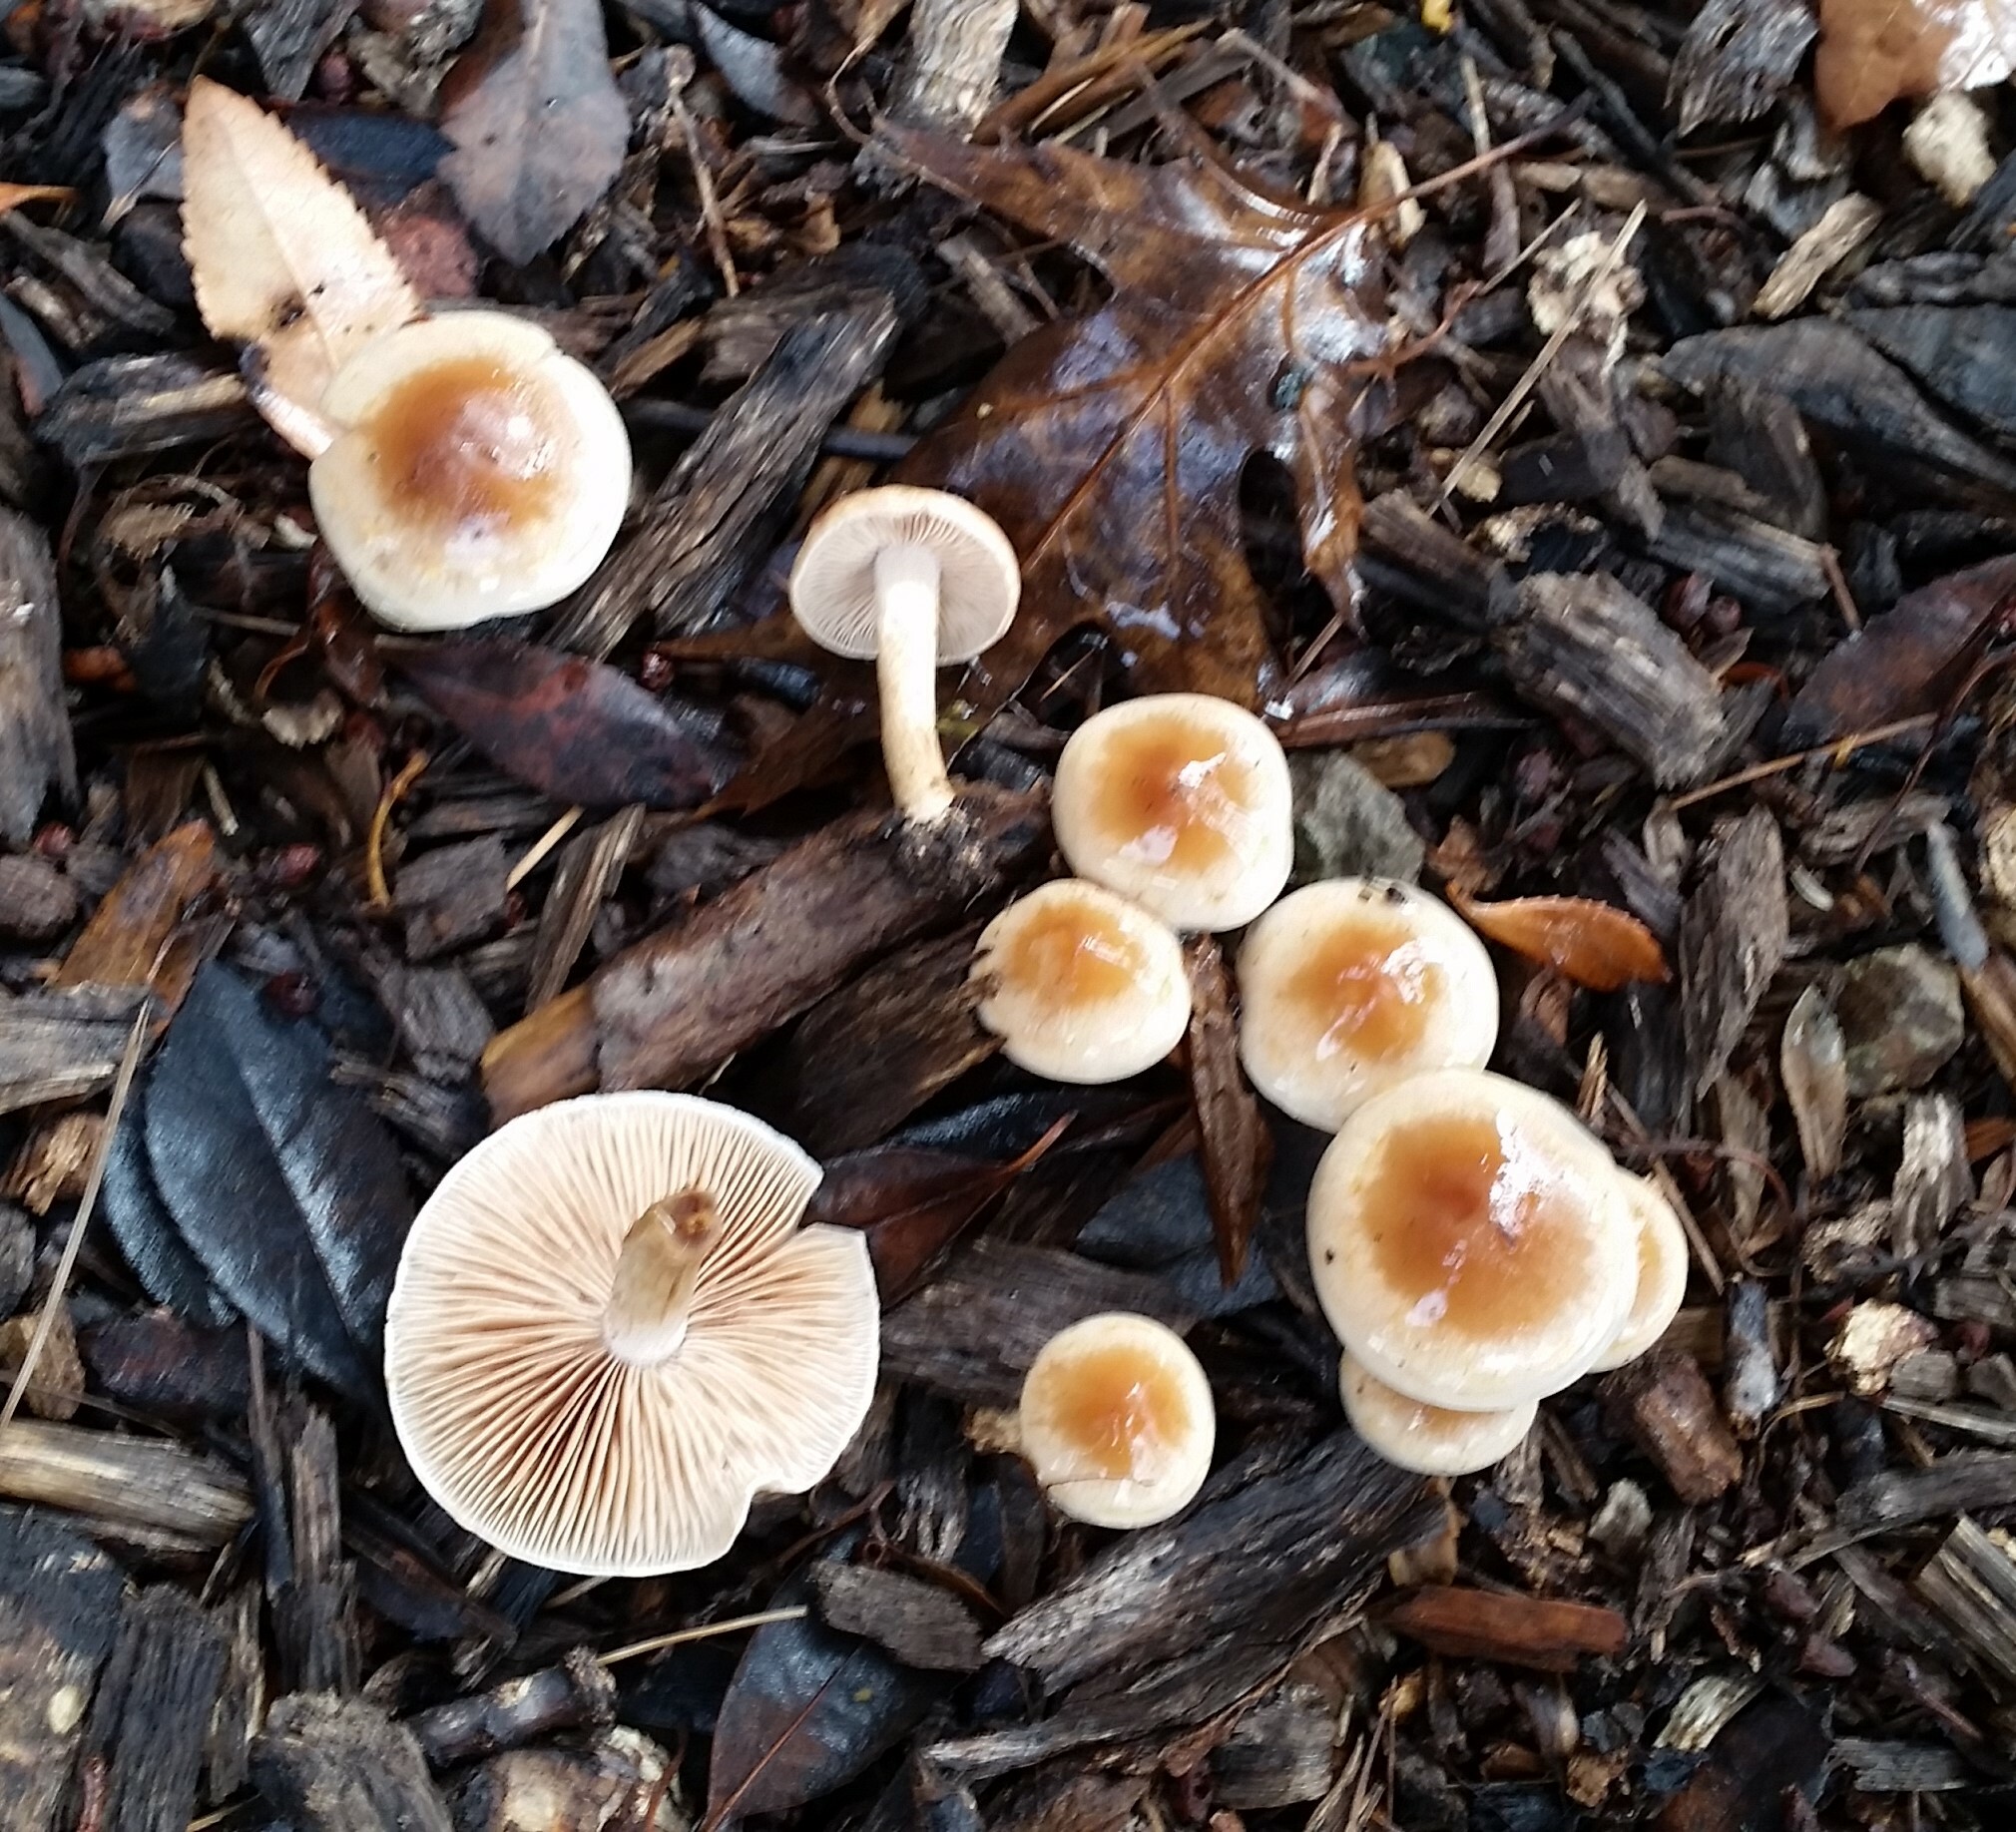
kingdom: Fungi
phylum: Basidiomycota
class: Agaricomycetes
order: Agaricales
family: Hymenogastraceae
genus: Hebeloma
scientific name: Hebeloma mesophaeum
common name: Veiled poisonpie
